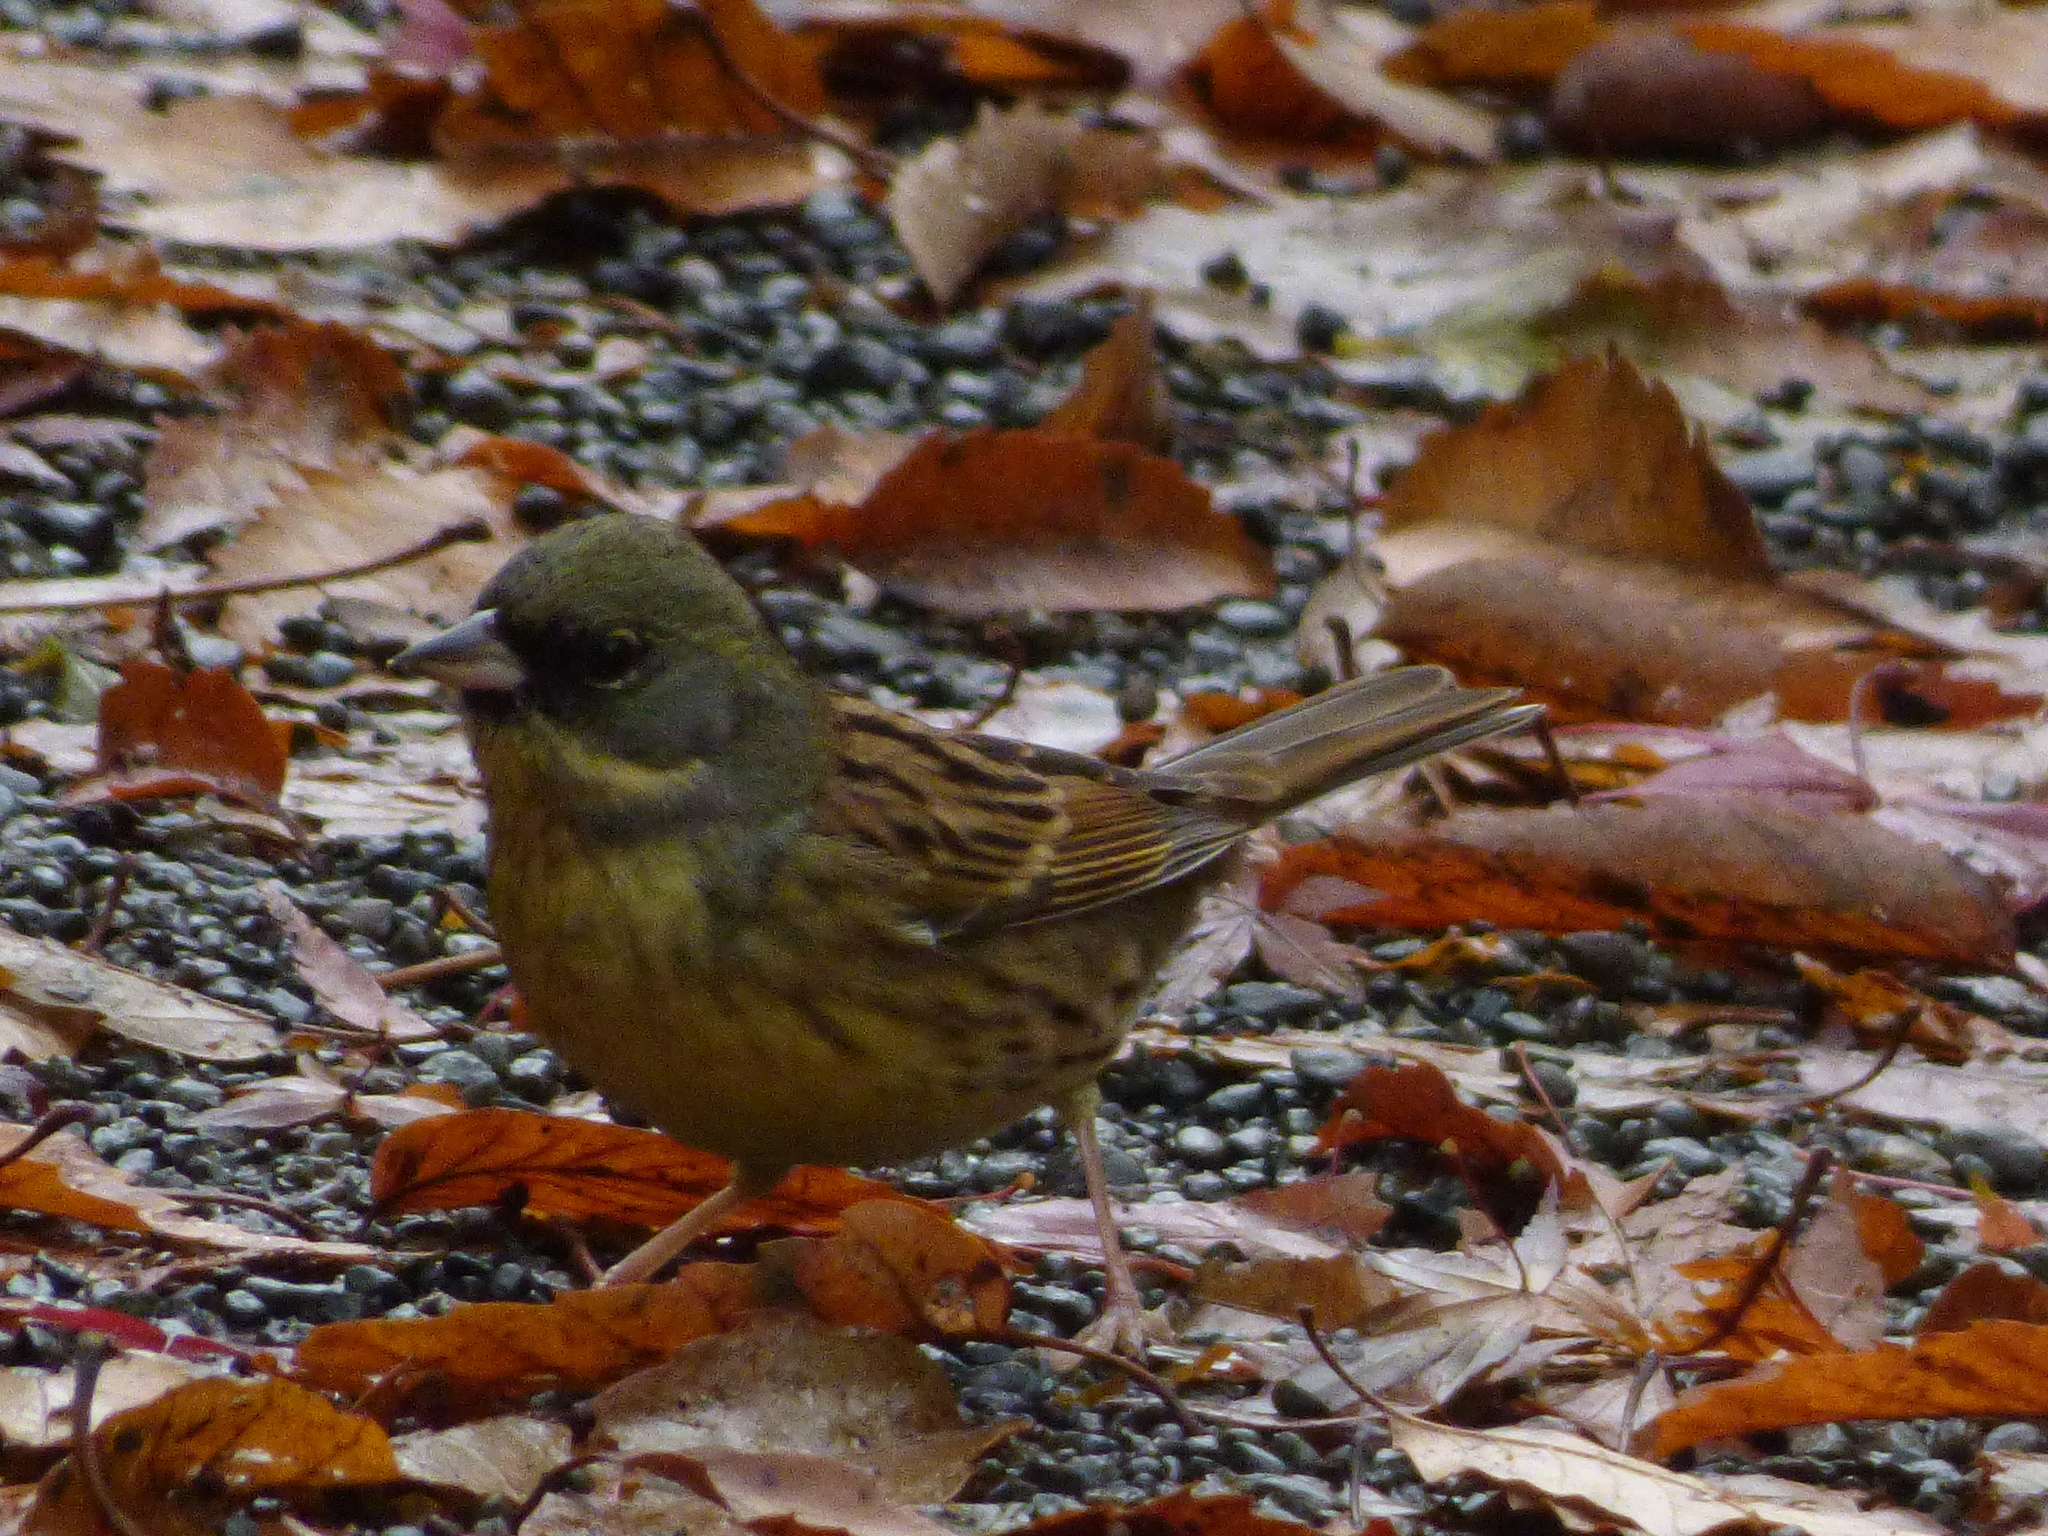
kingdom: Animalia
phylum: Chordata
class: Aves
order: Passeriformes
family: Emberizidae
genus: Emberiza
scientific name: Emberiza personata
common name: Masked bunting
